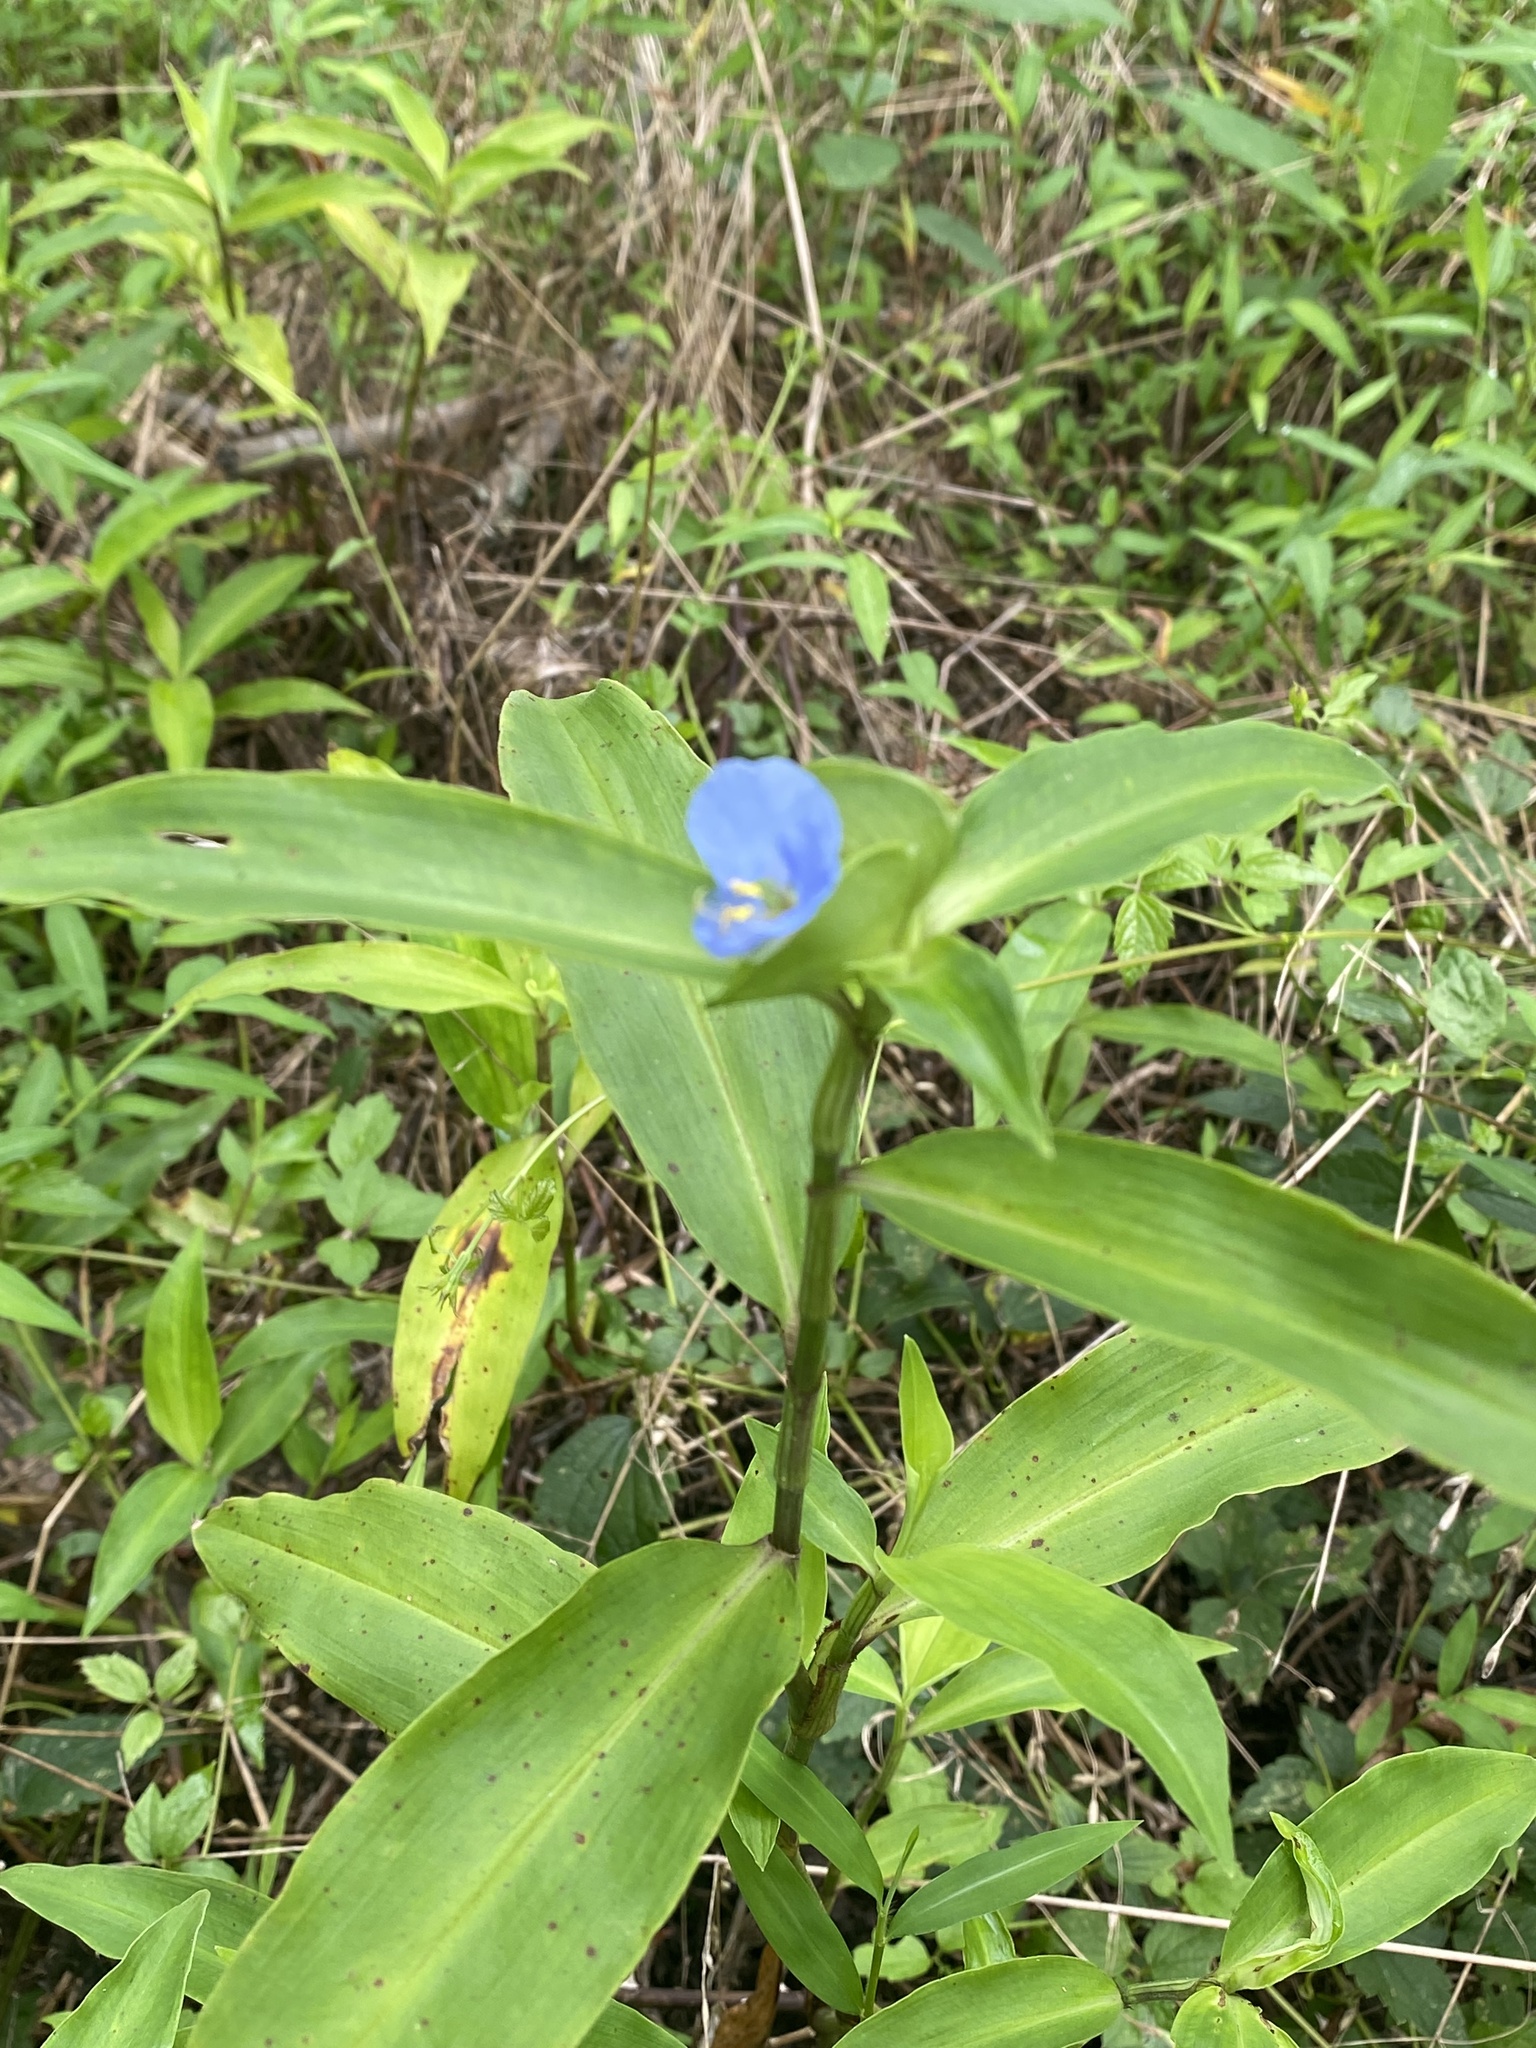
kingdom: Plantae
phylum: Tracheophyta
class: Liliopsida
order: Commelinales
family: Commelinaceae
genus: Commelina
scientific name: Commelina virginica
